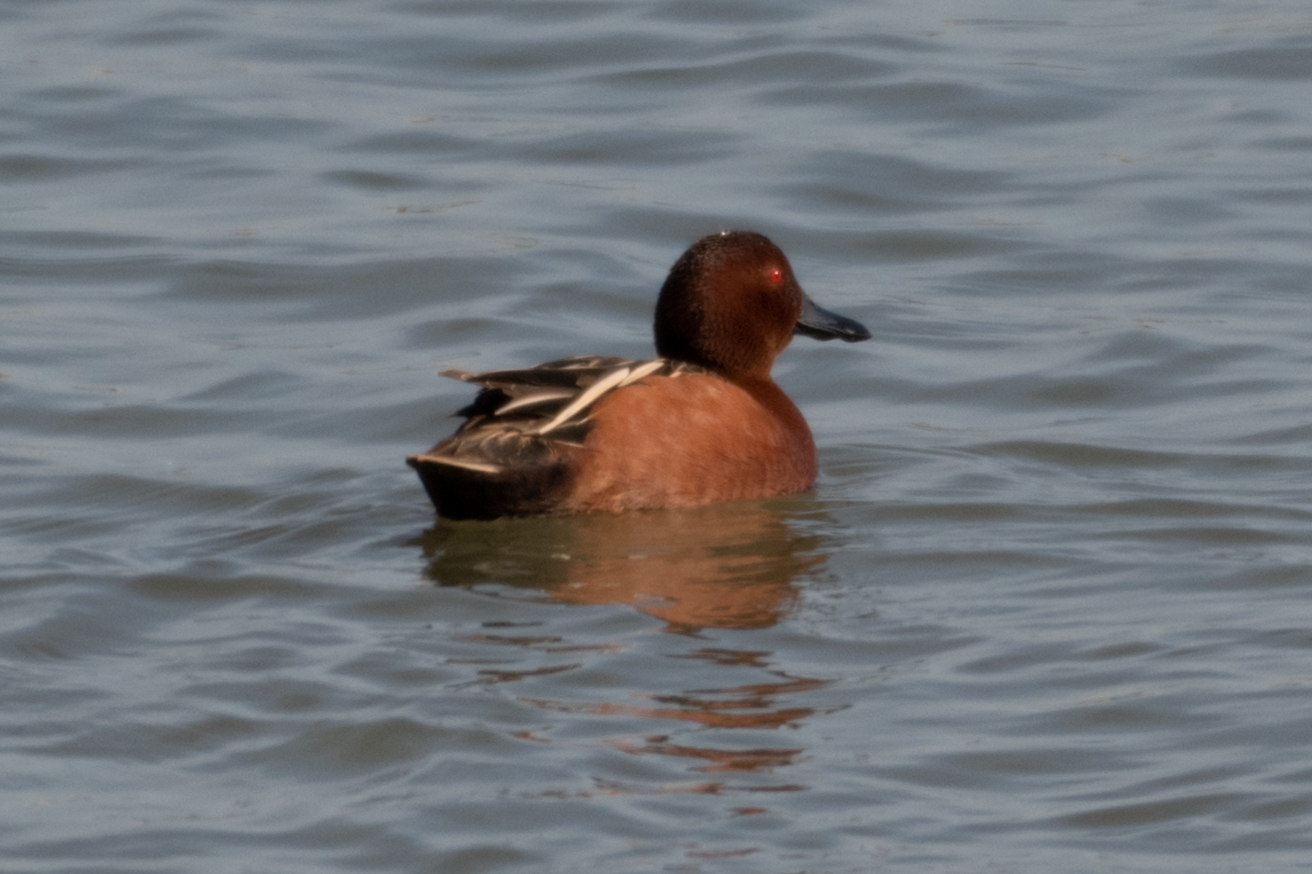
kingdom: Animalia
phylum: Chordata
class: Aves
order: Anseriformes
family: Anatidae
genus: Spatula
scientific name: Spatula cyanoptera
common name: Cinnamon teal
